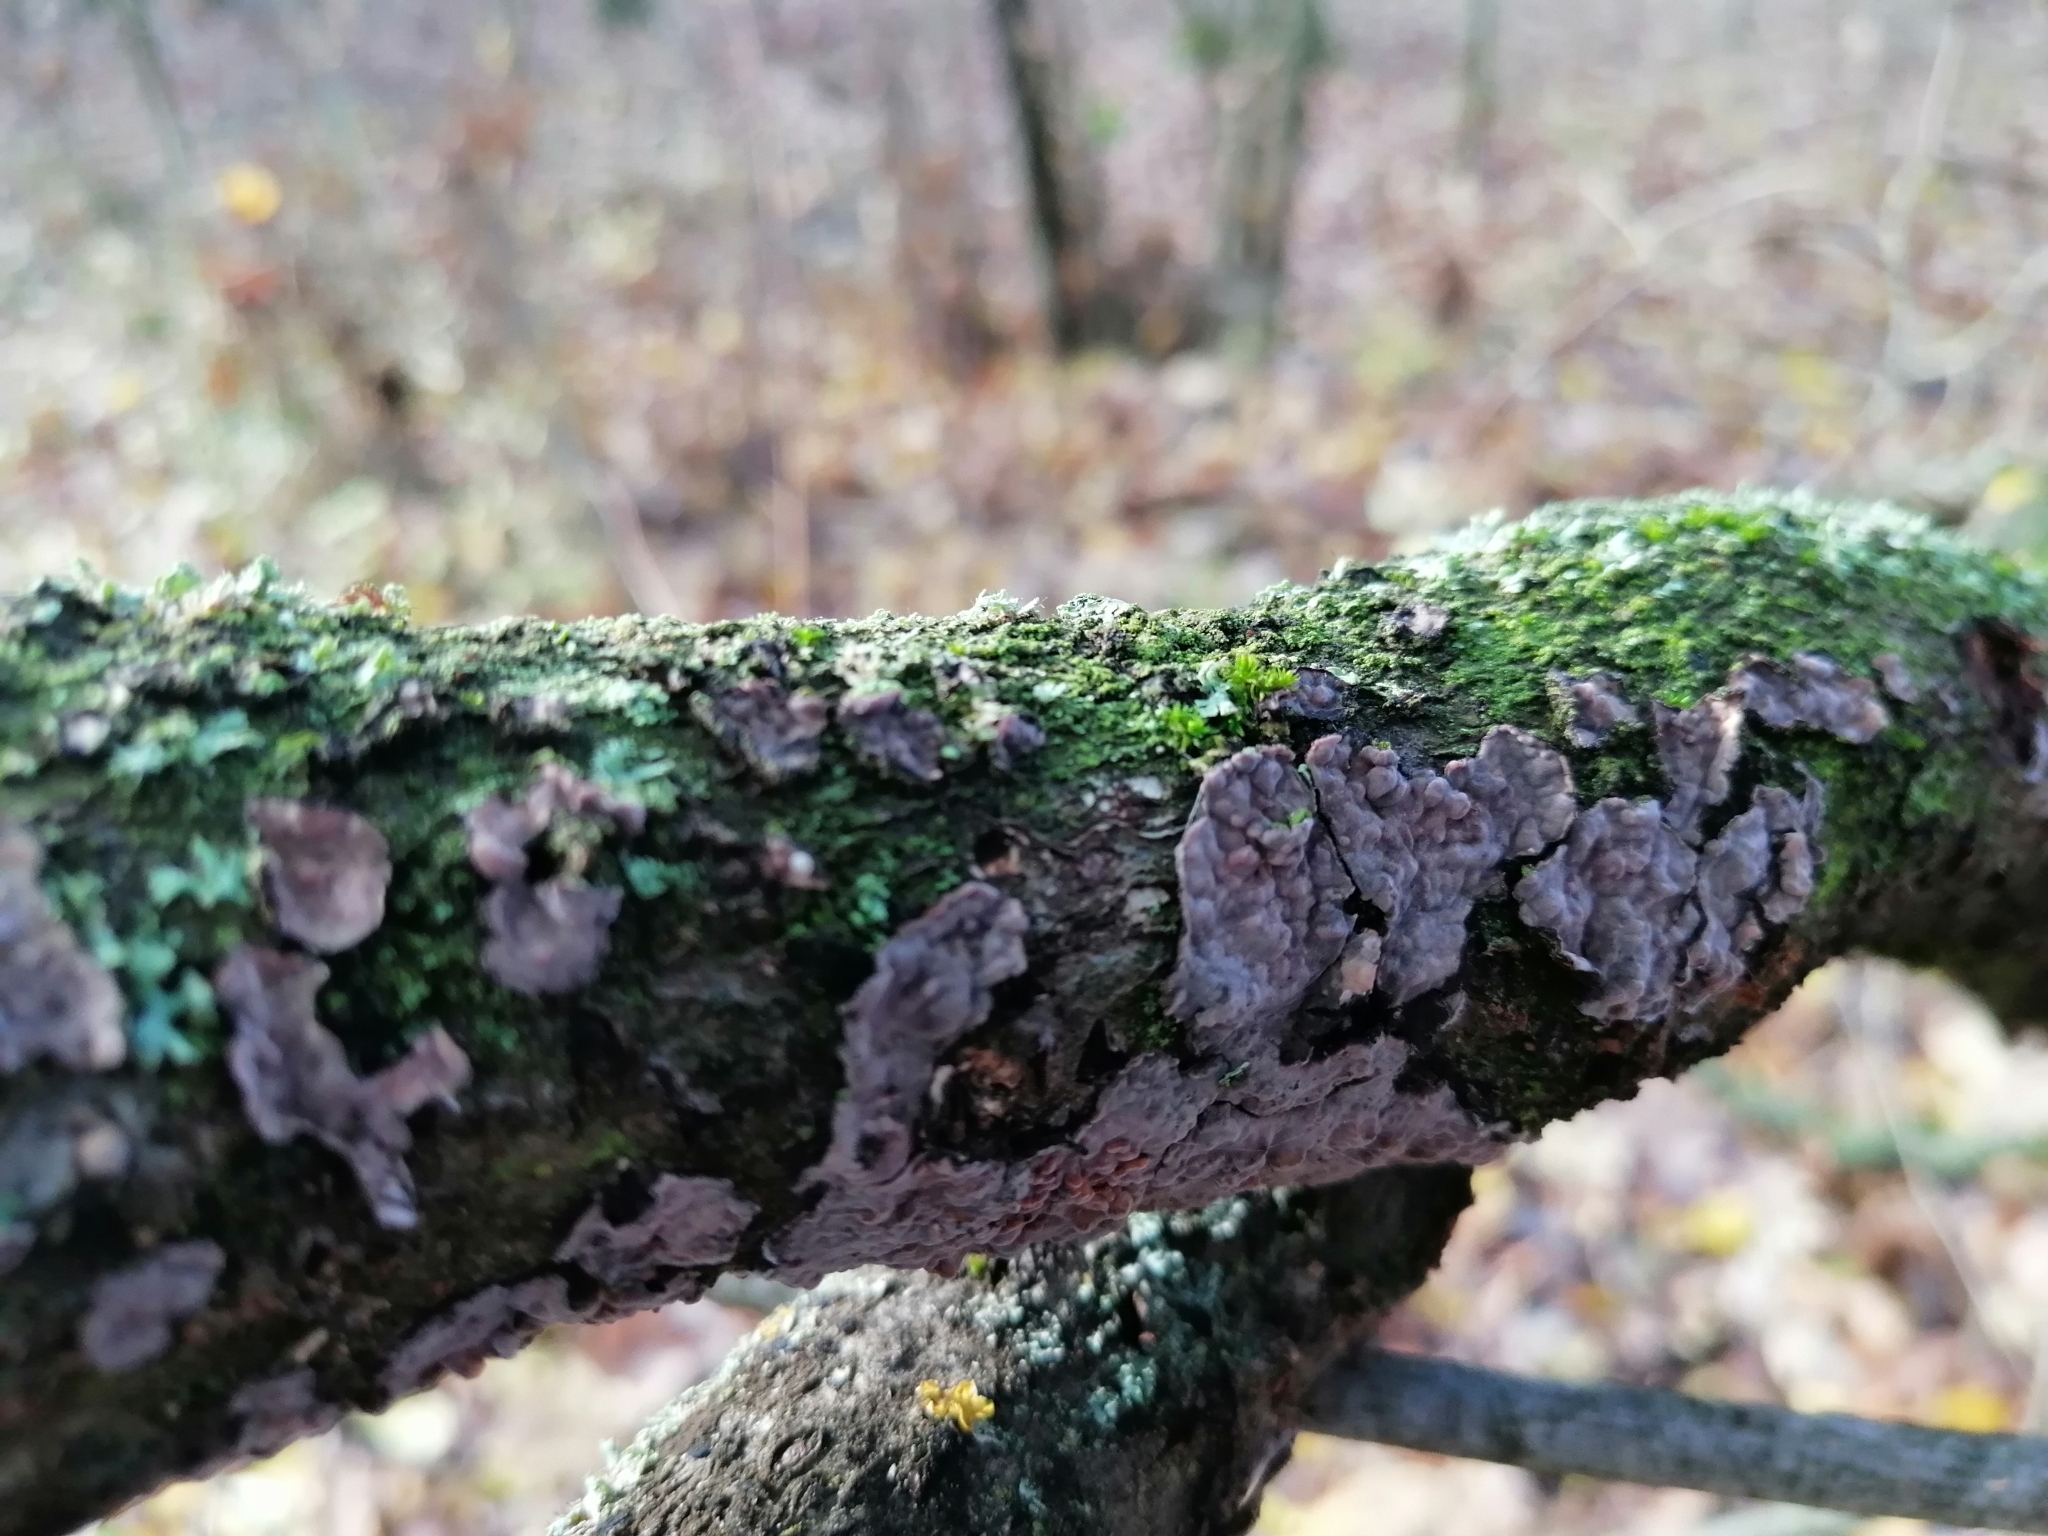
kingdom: Fungi
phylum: Basidiomycota
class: Agaricomycetes
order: Russulales
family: Peniophoraceae
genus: Peniophora
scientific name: Peniophora quercina
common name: Oak crust
